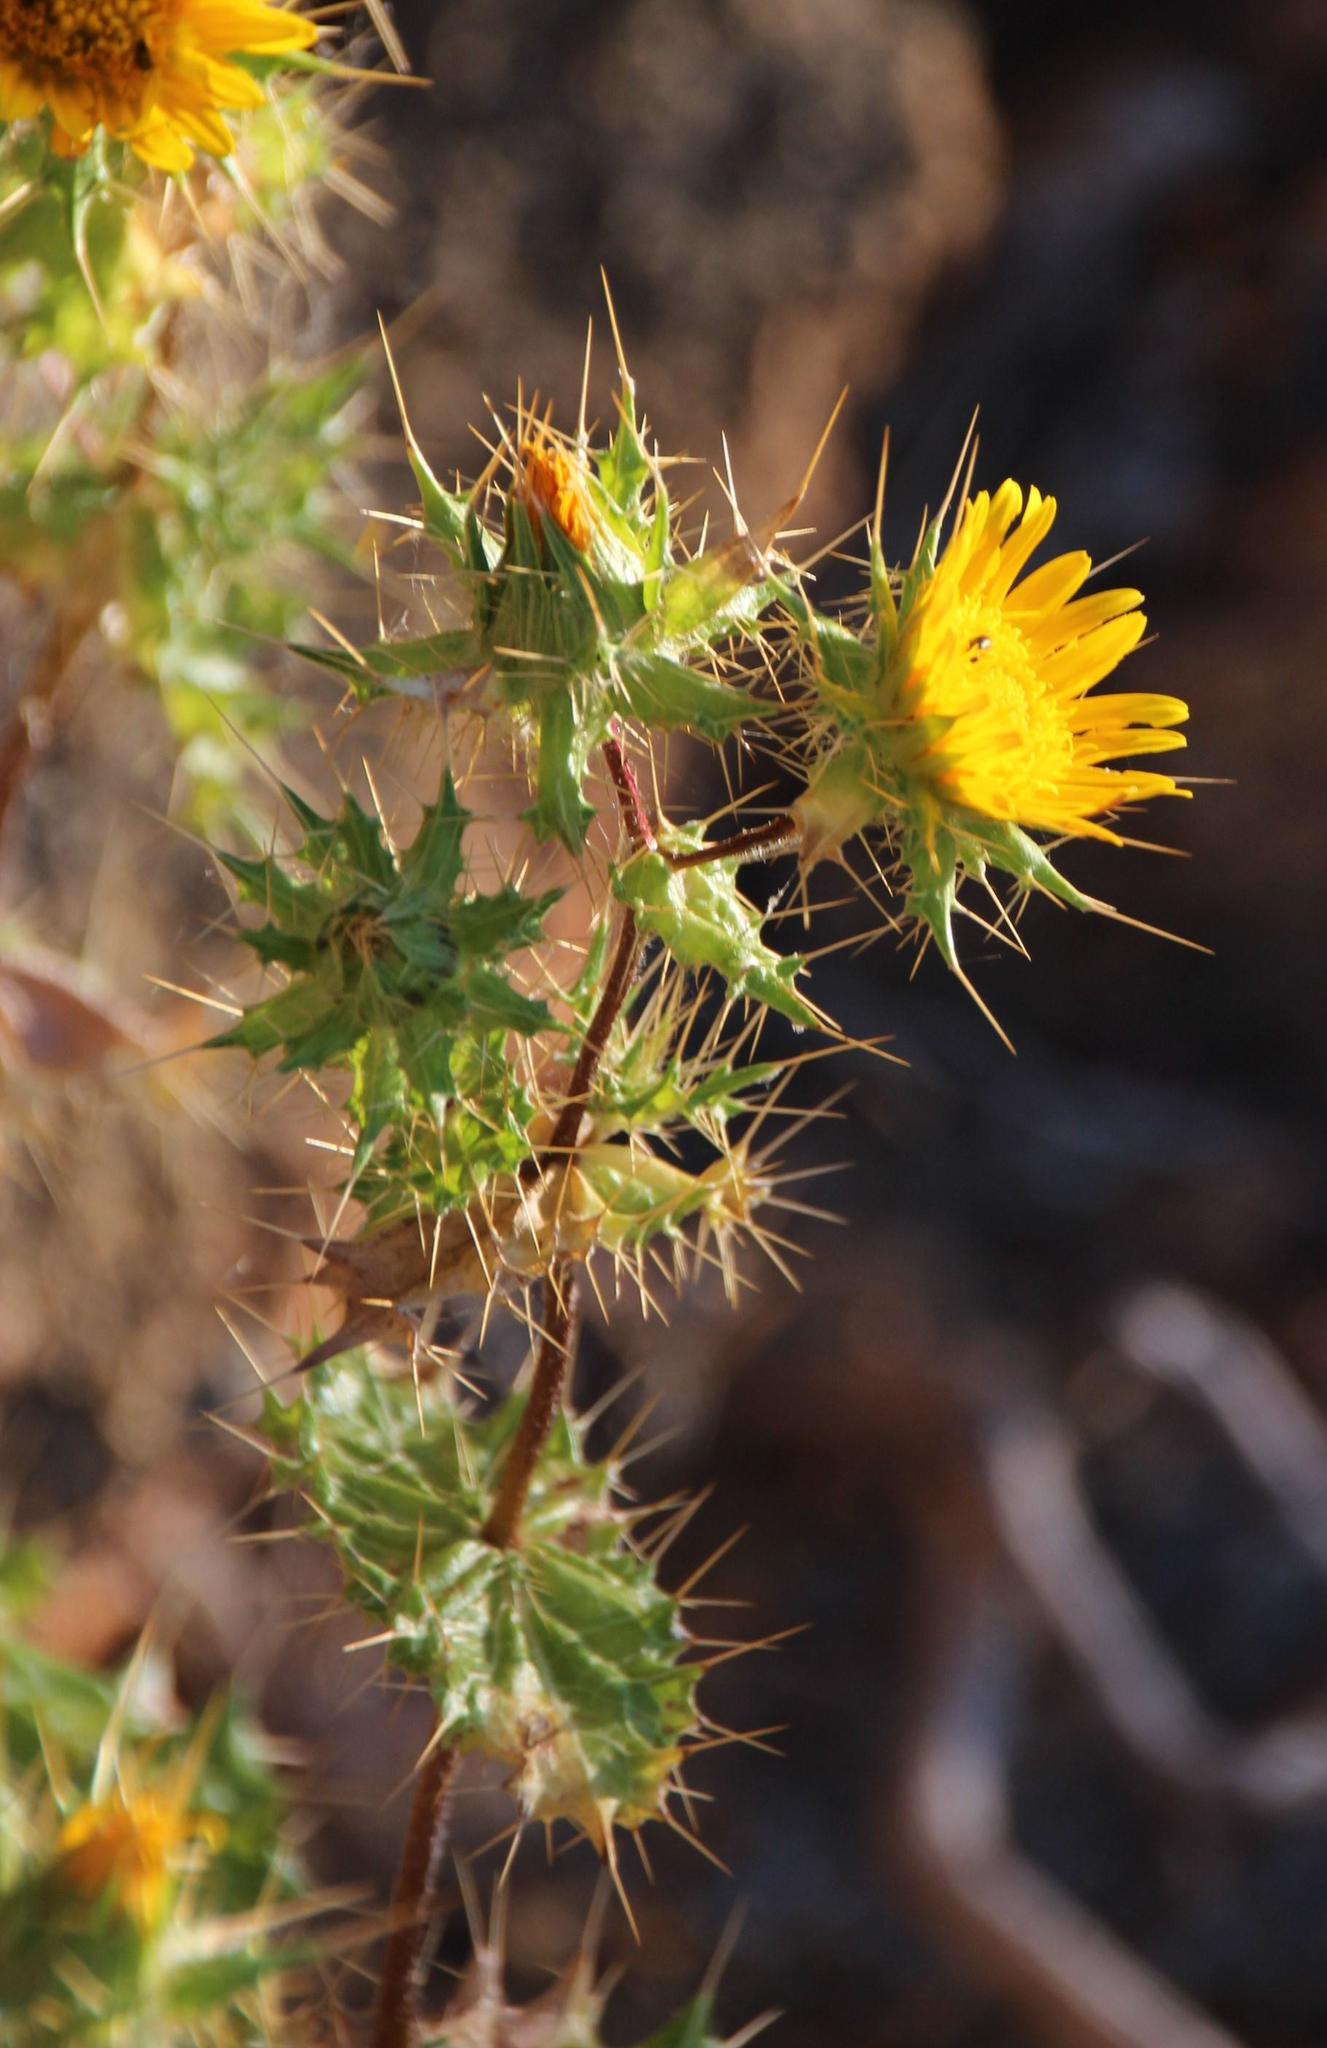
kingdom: Plantae
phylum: Tracheophyta
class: Magnoliopsida
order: Asterales
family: Asteraceae
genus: Berkheya
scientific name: Berkheya spinosissima
